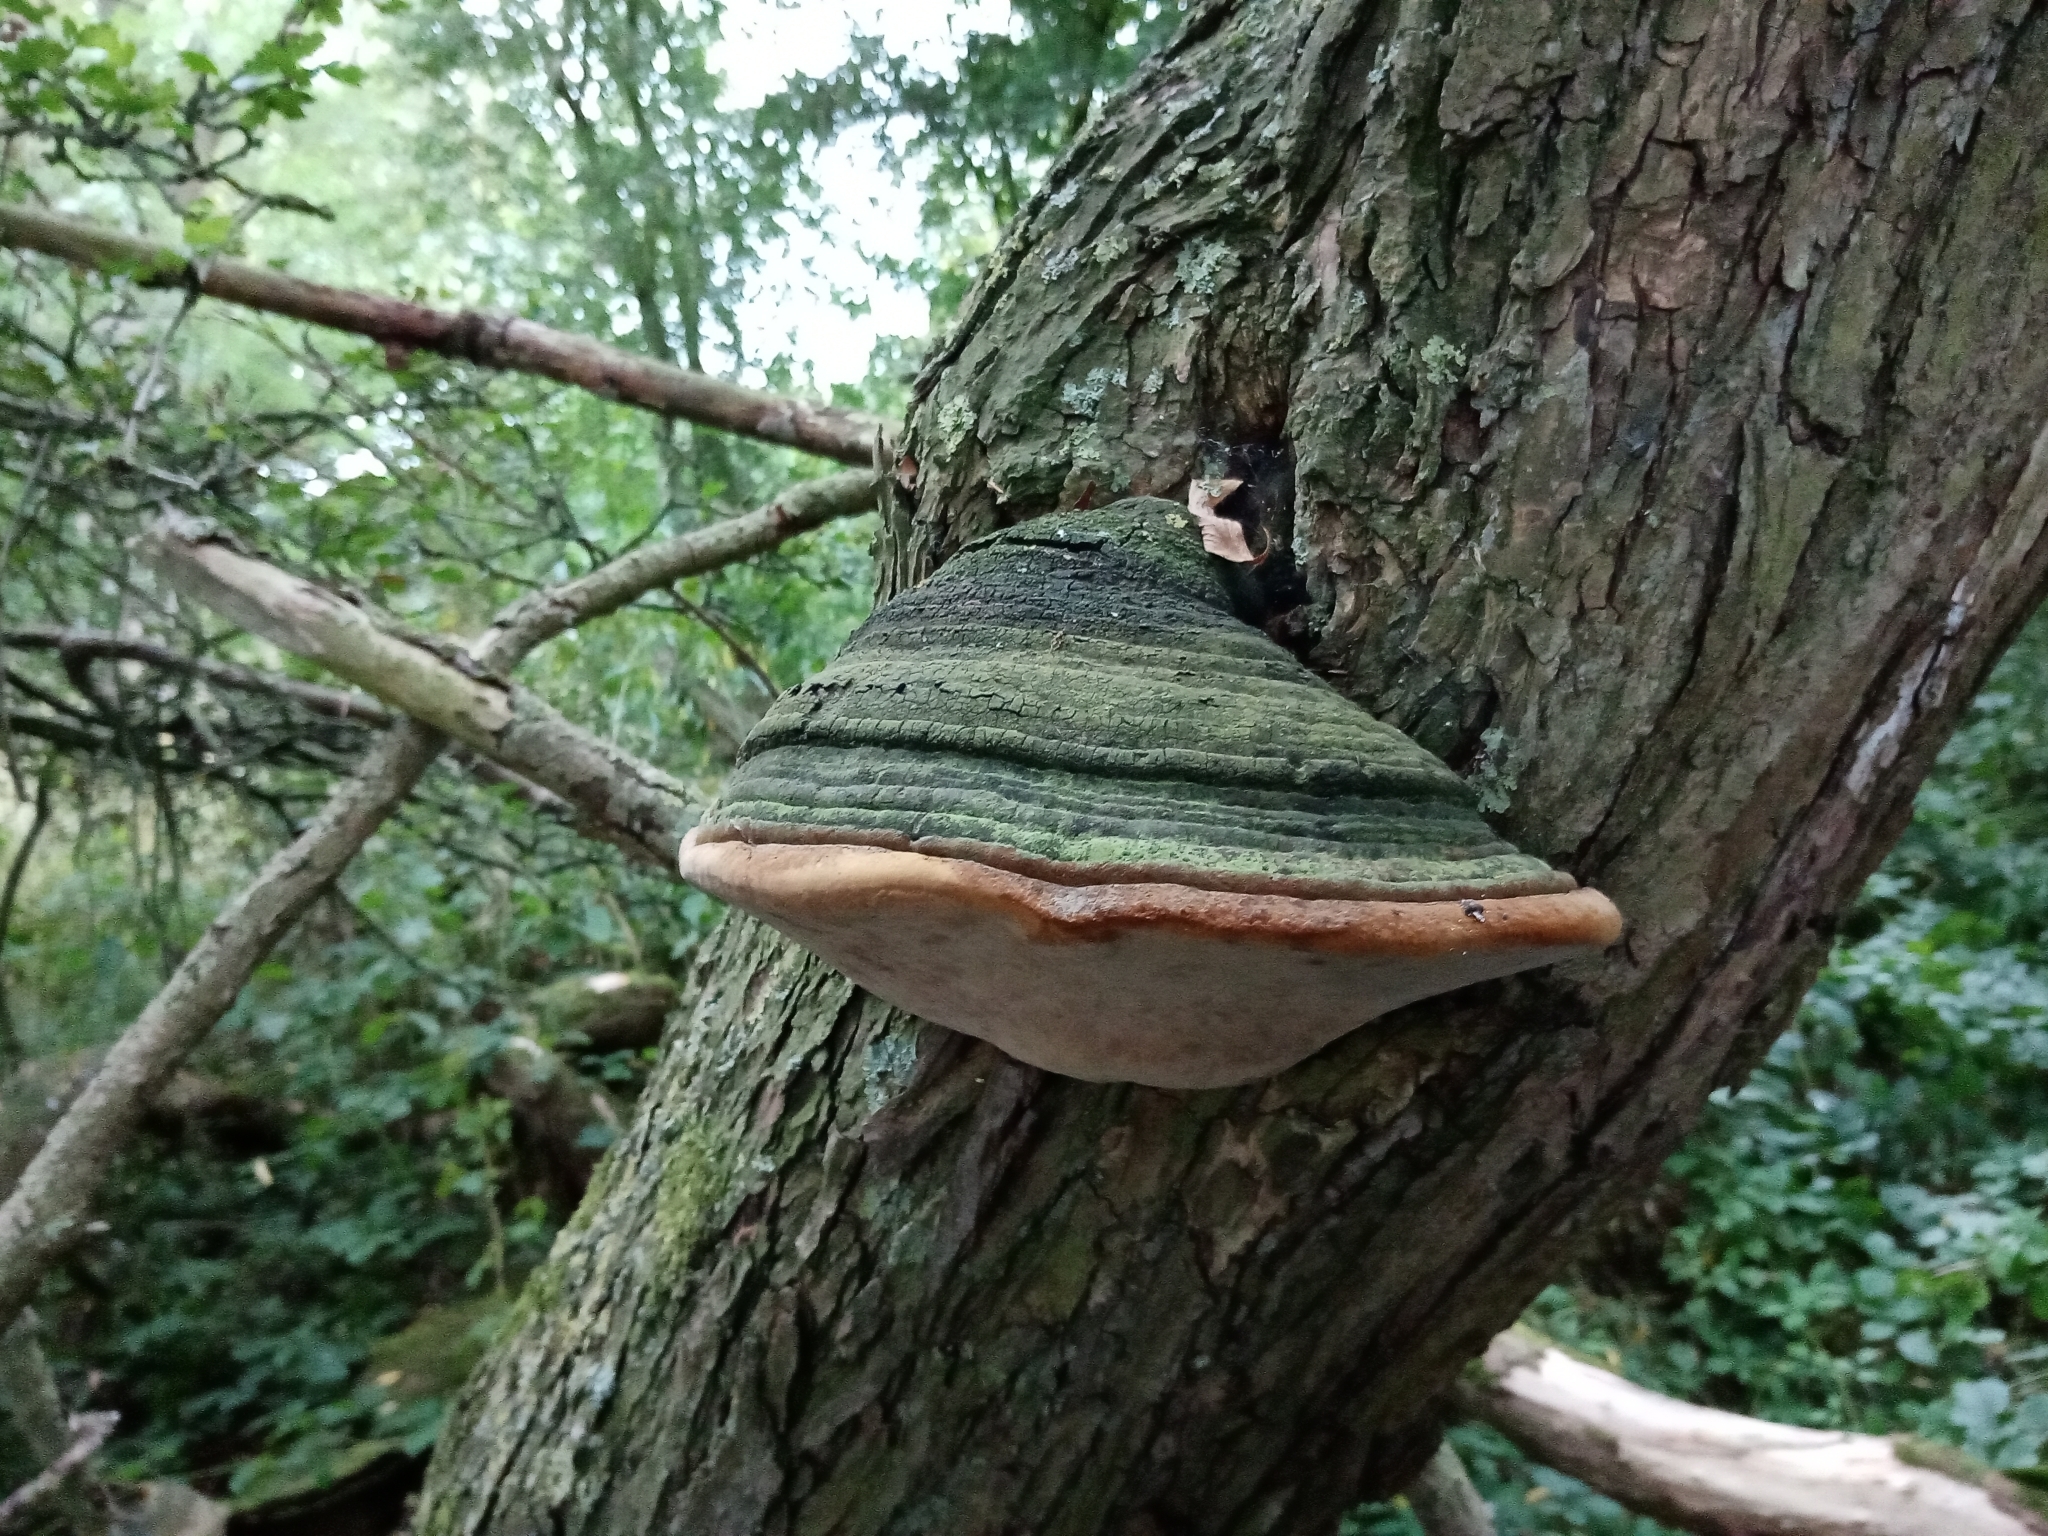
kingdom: Fungi
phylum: Basidiomycota
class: Agaricomycetes
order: Polyporales
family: Polyporaceae
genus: Fomes
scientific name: Fomes fomentarius
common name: Hoof fungus
